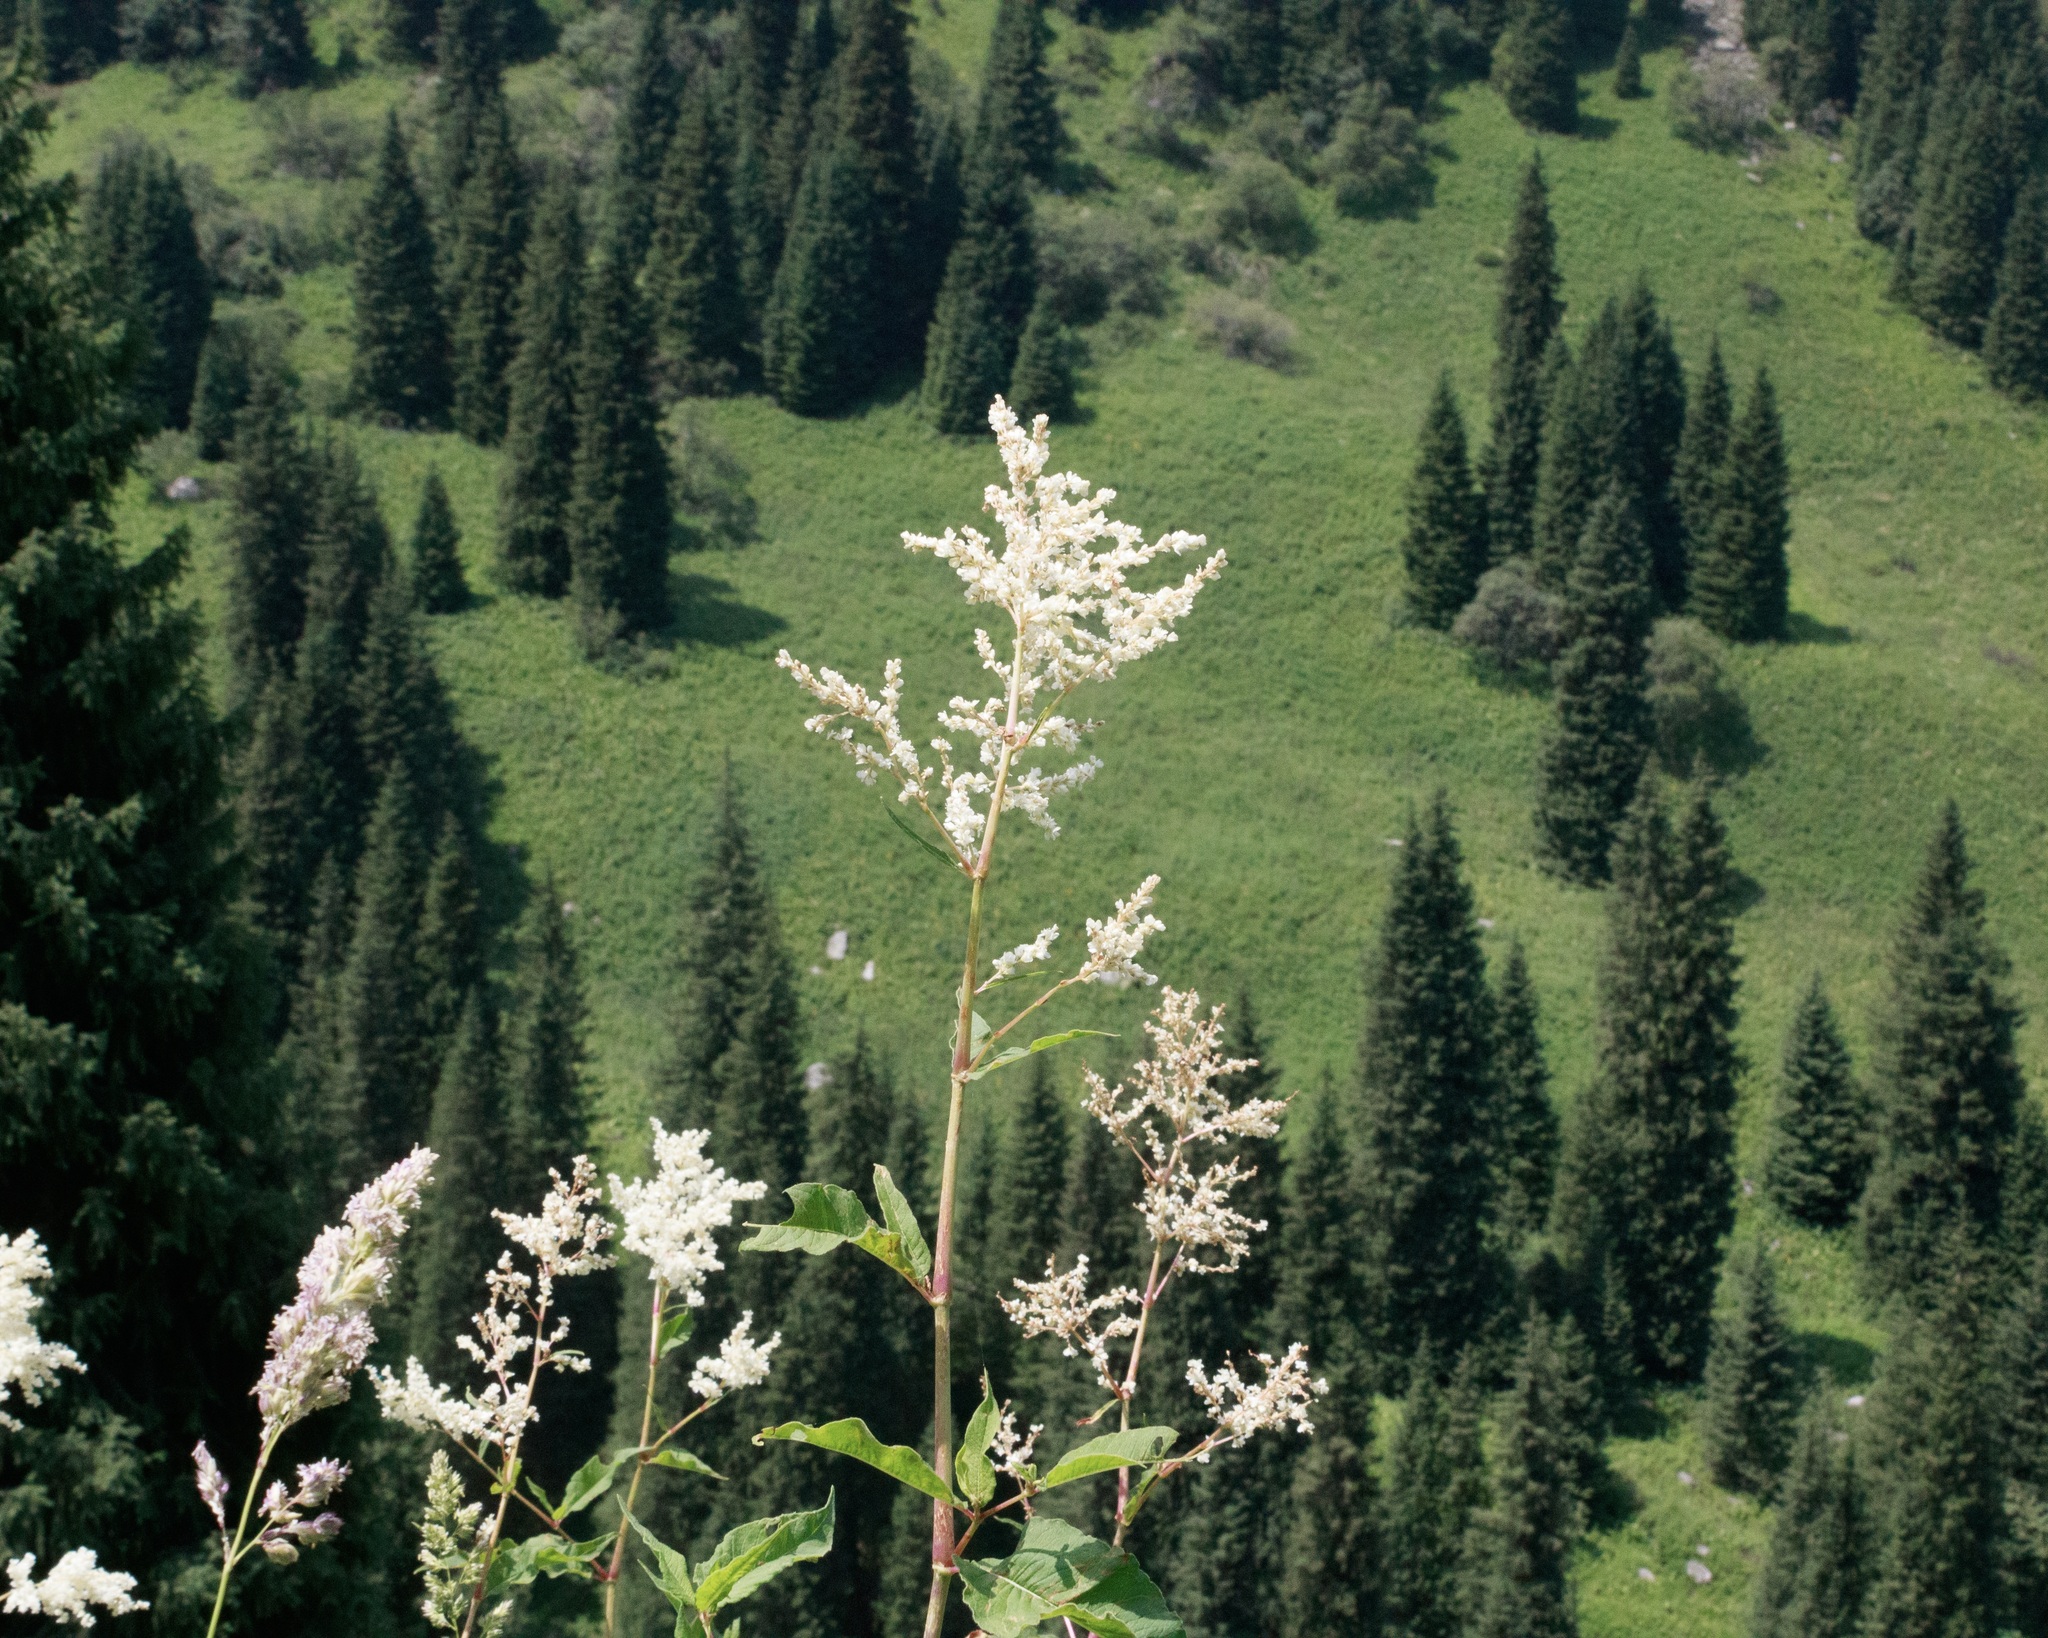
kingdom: Plantae
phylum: Tracheophyta
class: Magnoliopsida
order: Caryophyllales
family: Polygonaceae
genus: Koenigia
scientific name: Koenigia alpina
